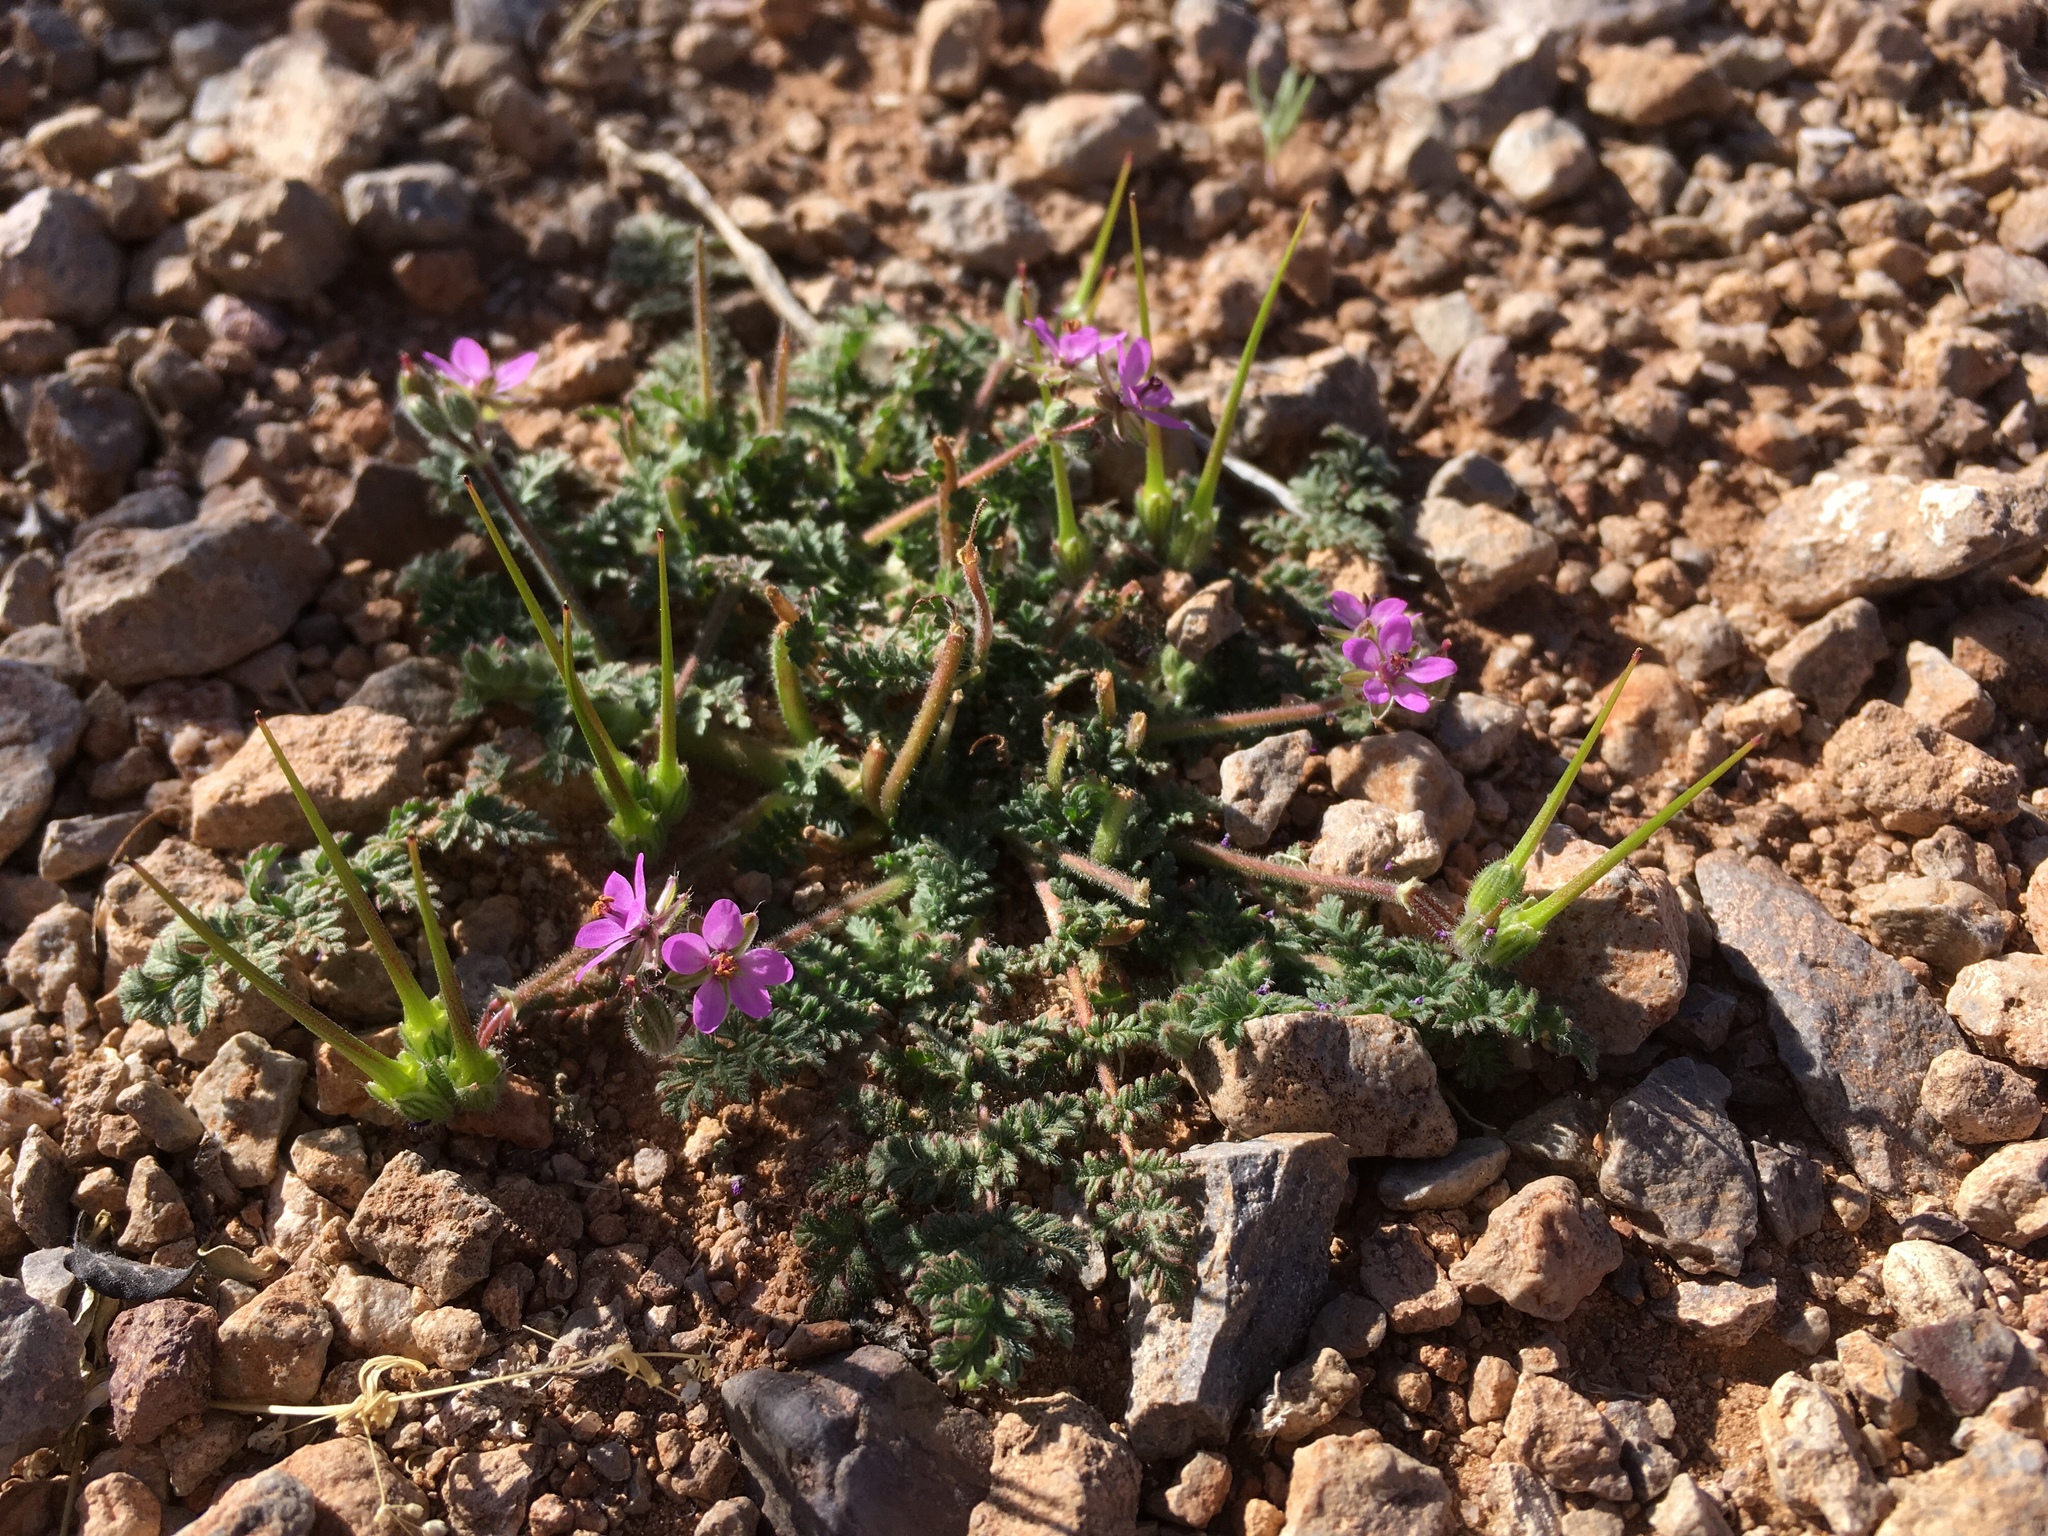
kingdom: Plantae
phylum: Tracheophyta
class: Magnoliopsida
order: Geraniales
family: Geraniaceae
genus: Erodium
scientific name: Erodium cicutarium
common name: Common stork's-bill
